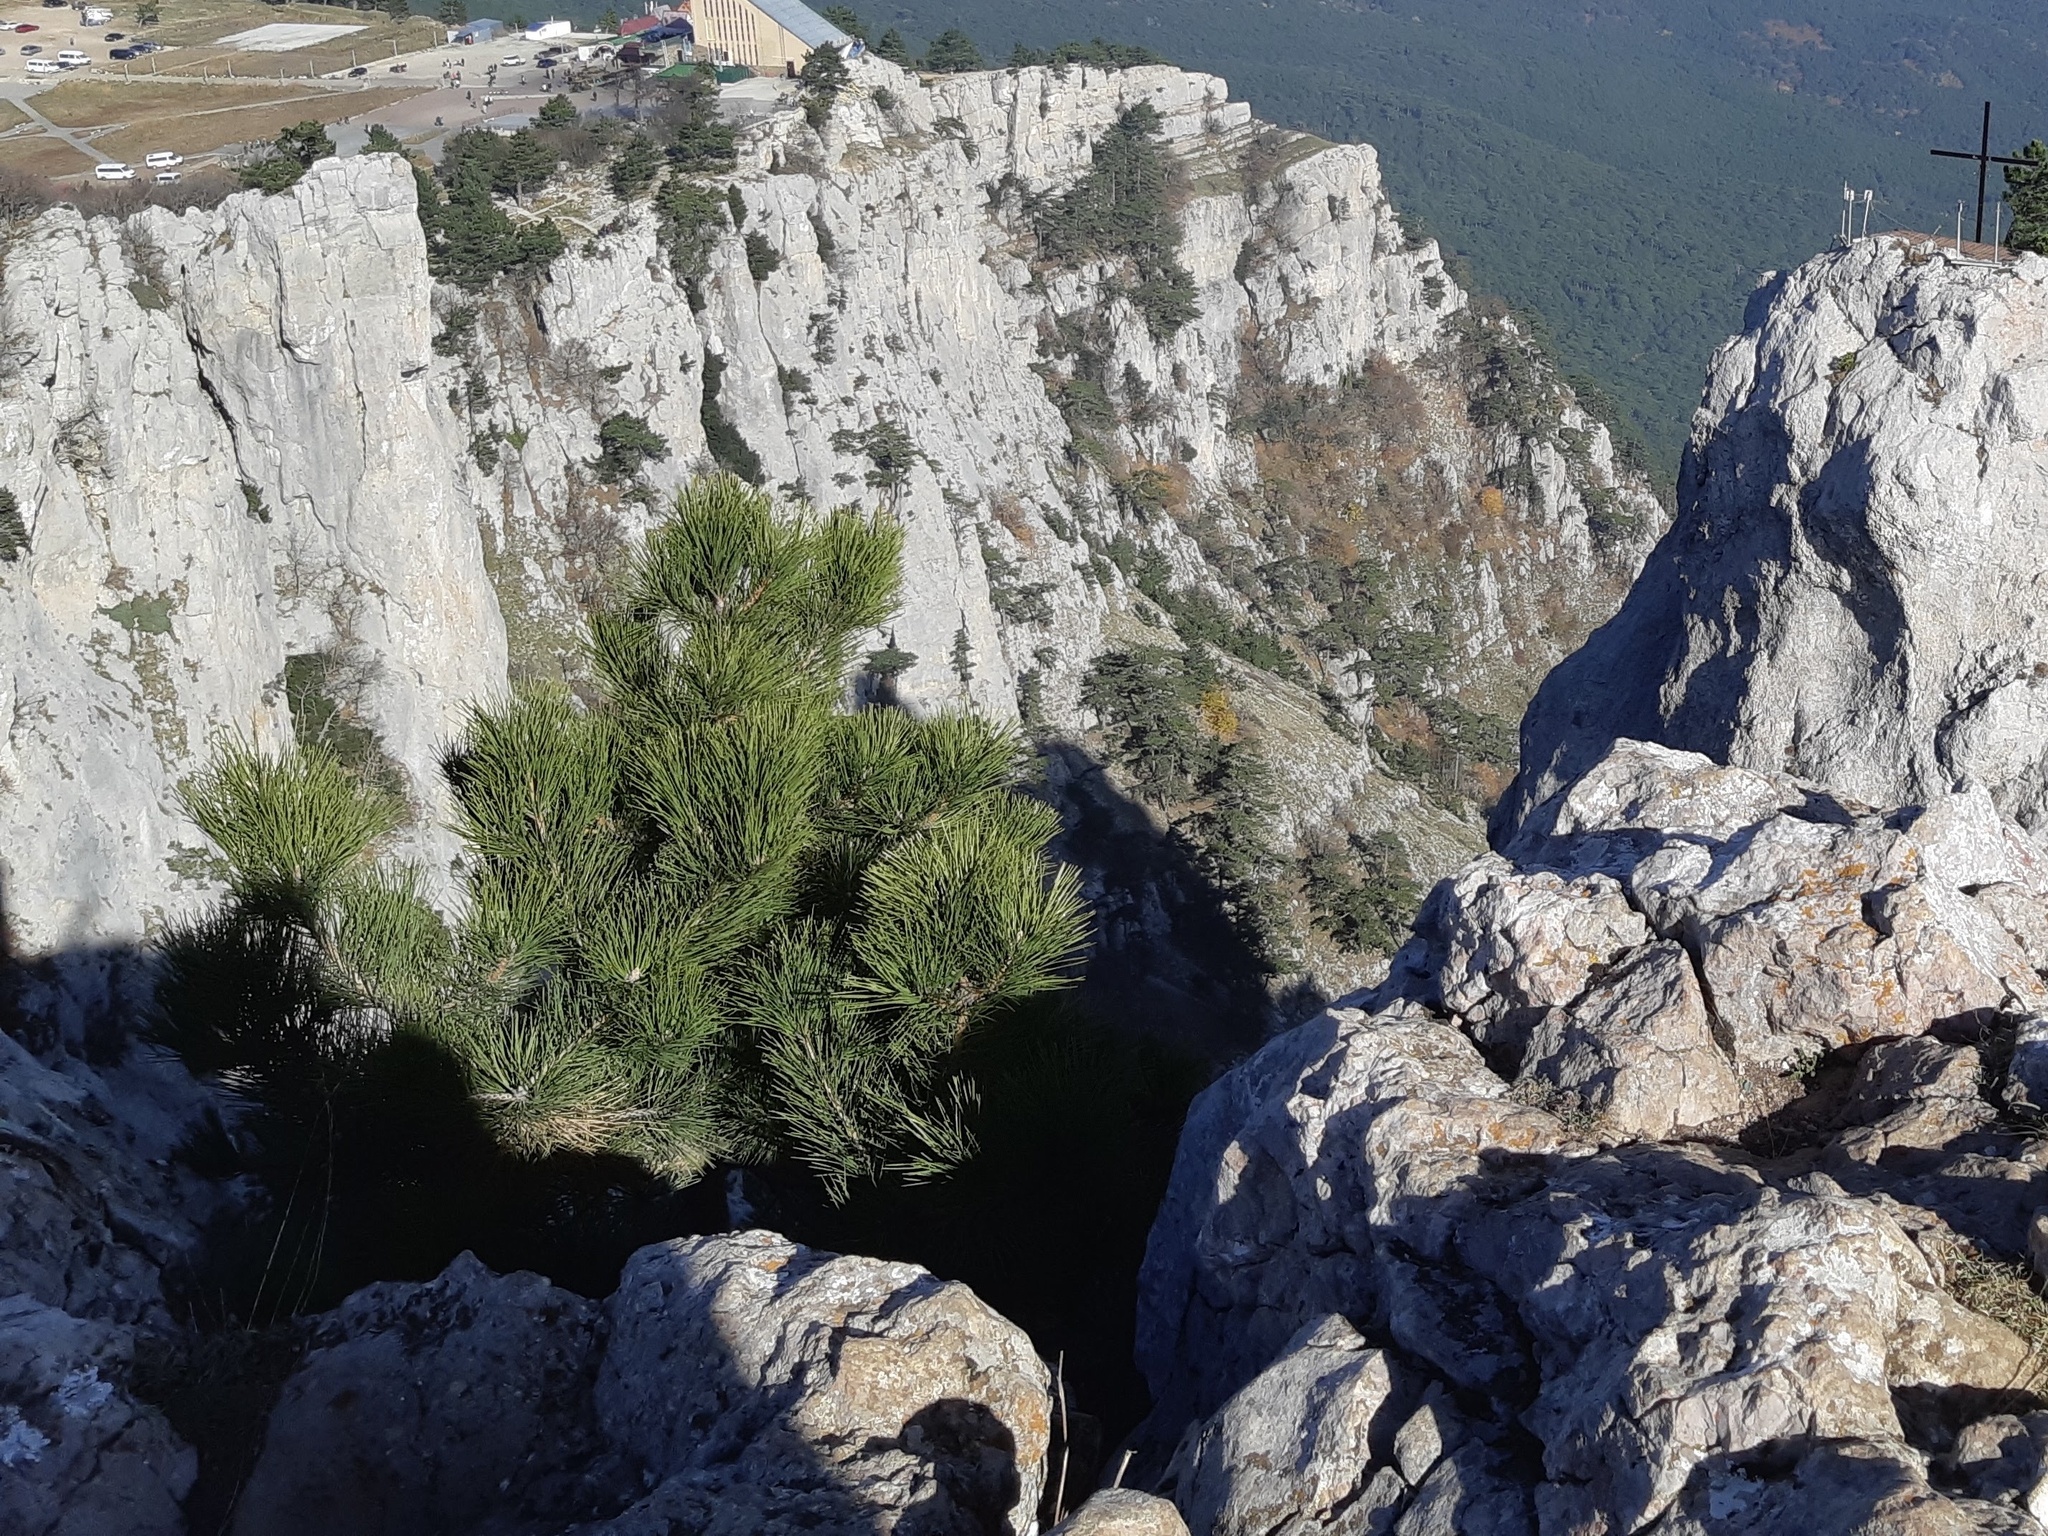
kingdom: Plantae
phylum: Tracheophyta
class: Pinopsida
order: Pinales
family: Pinaceae
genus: Pinus
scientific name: Pinus nigra
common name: Austrian pine
